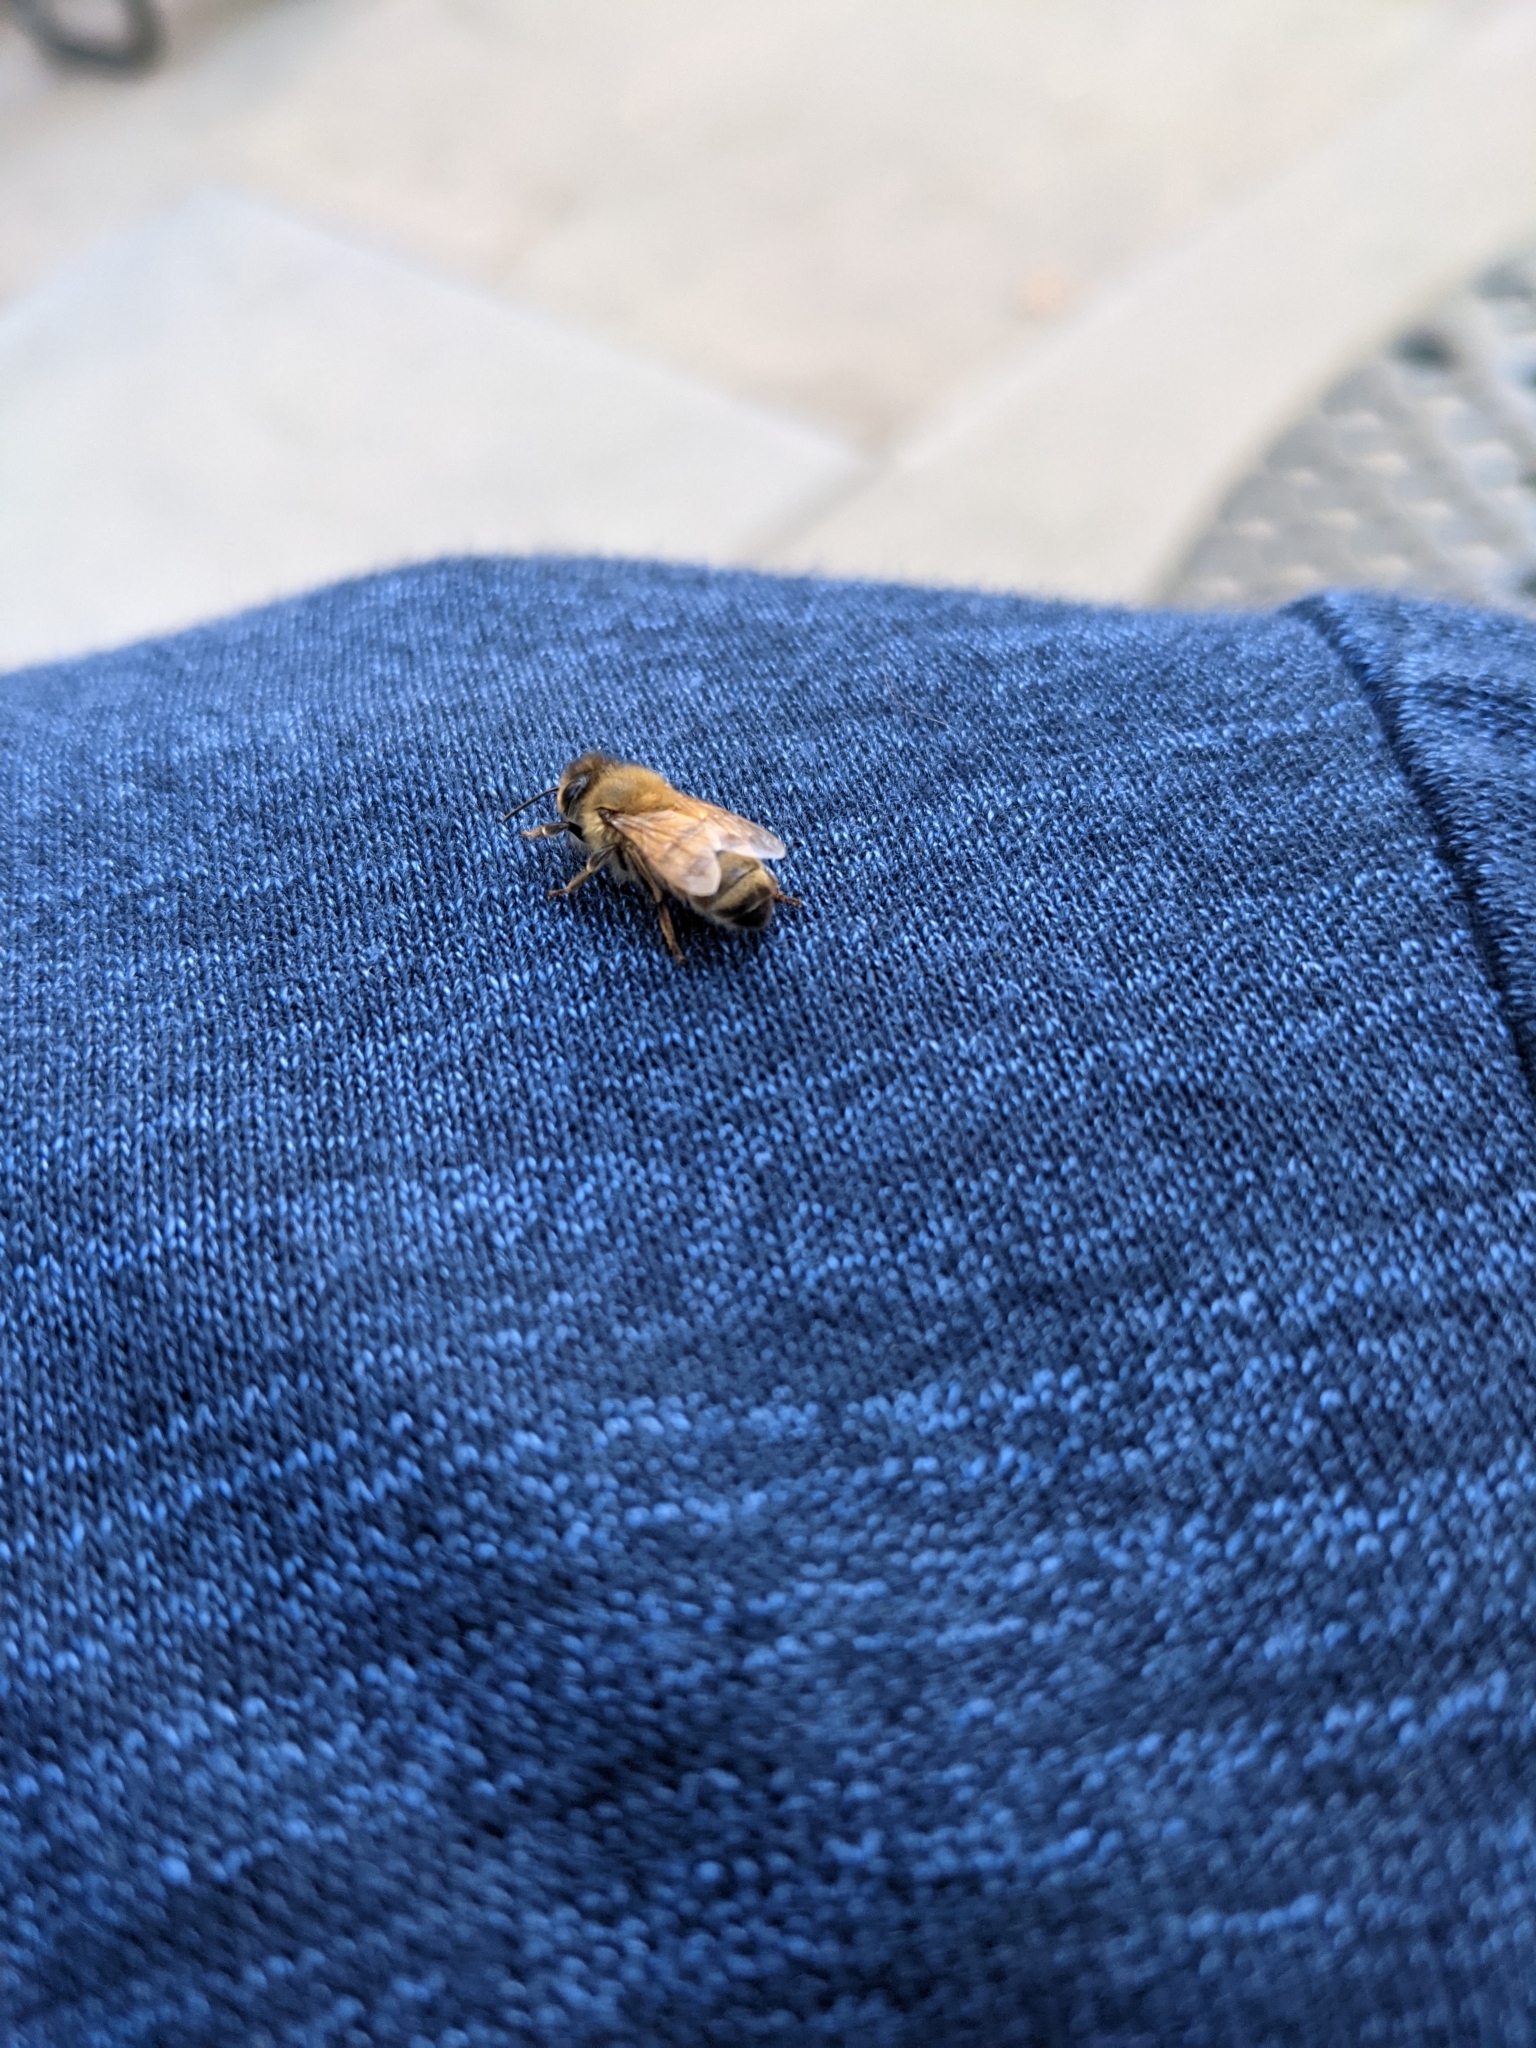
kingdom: Animalia
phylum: Arthropoda
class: Insecta
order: Hymenoptera
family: Apidae
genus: Apis
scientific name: Apis mellifera
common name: Honey bee
